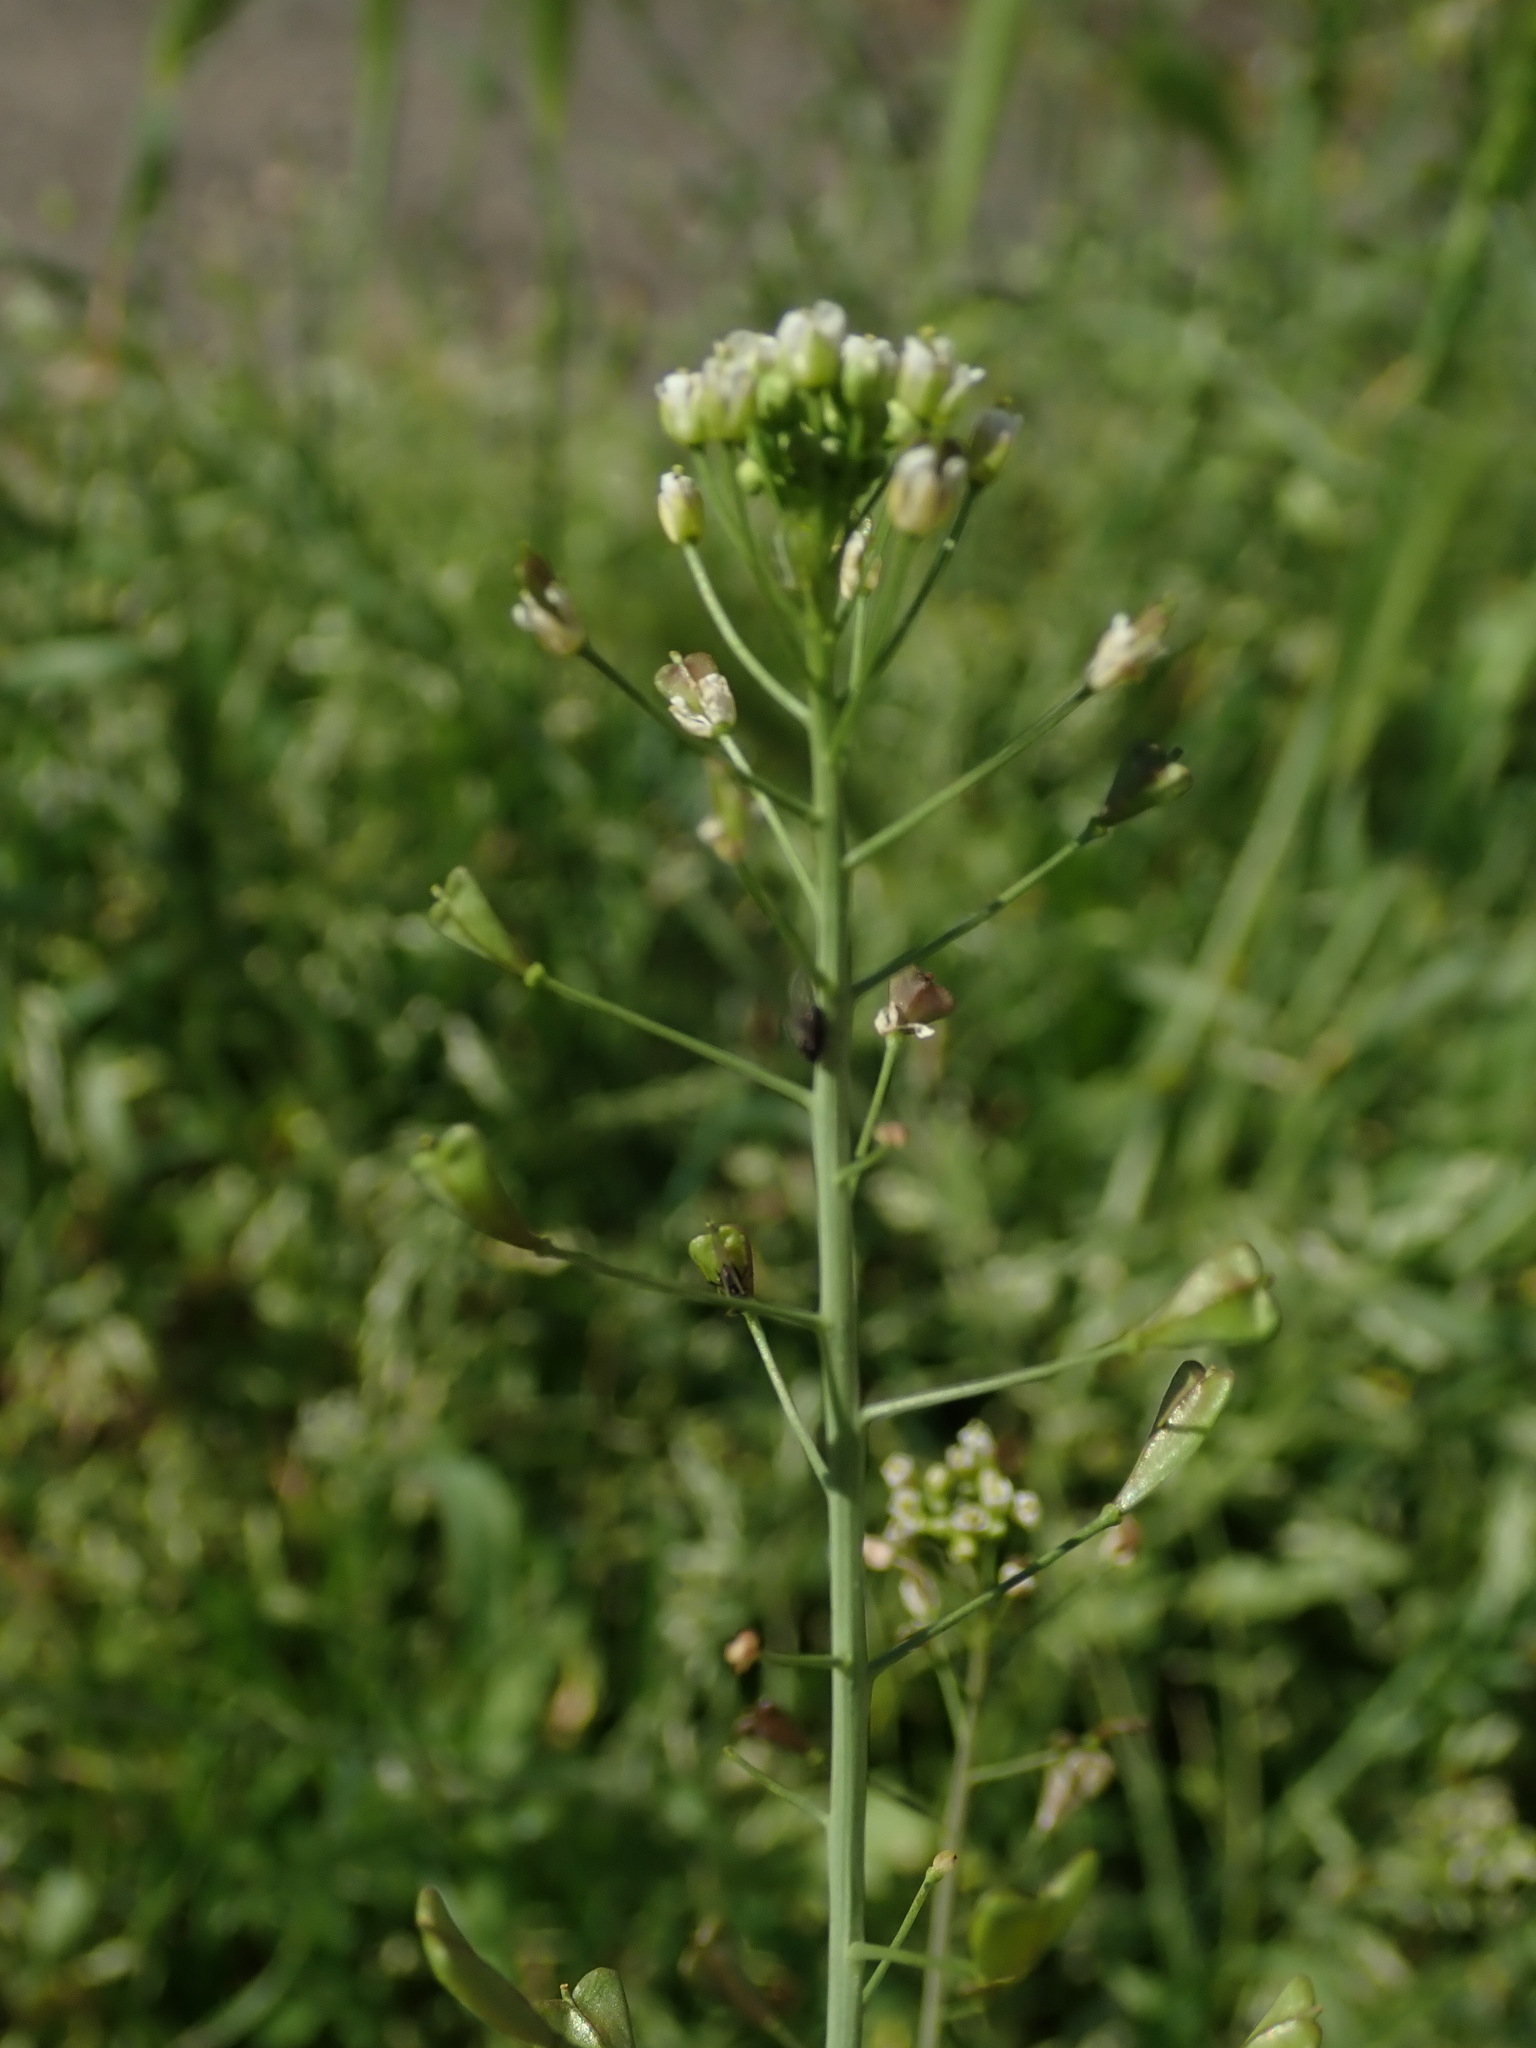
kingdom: Plantae
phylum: Tracheophyta
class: Magnoliopsida
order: Brassicales
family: Brassicaceae
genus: Capsella
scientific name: Capsella bursa-pastoris
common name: Shepherd's purse
